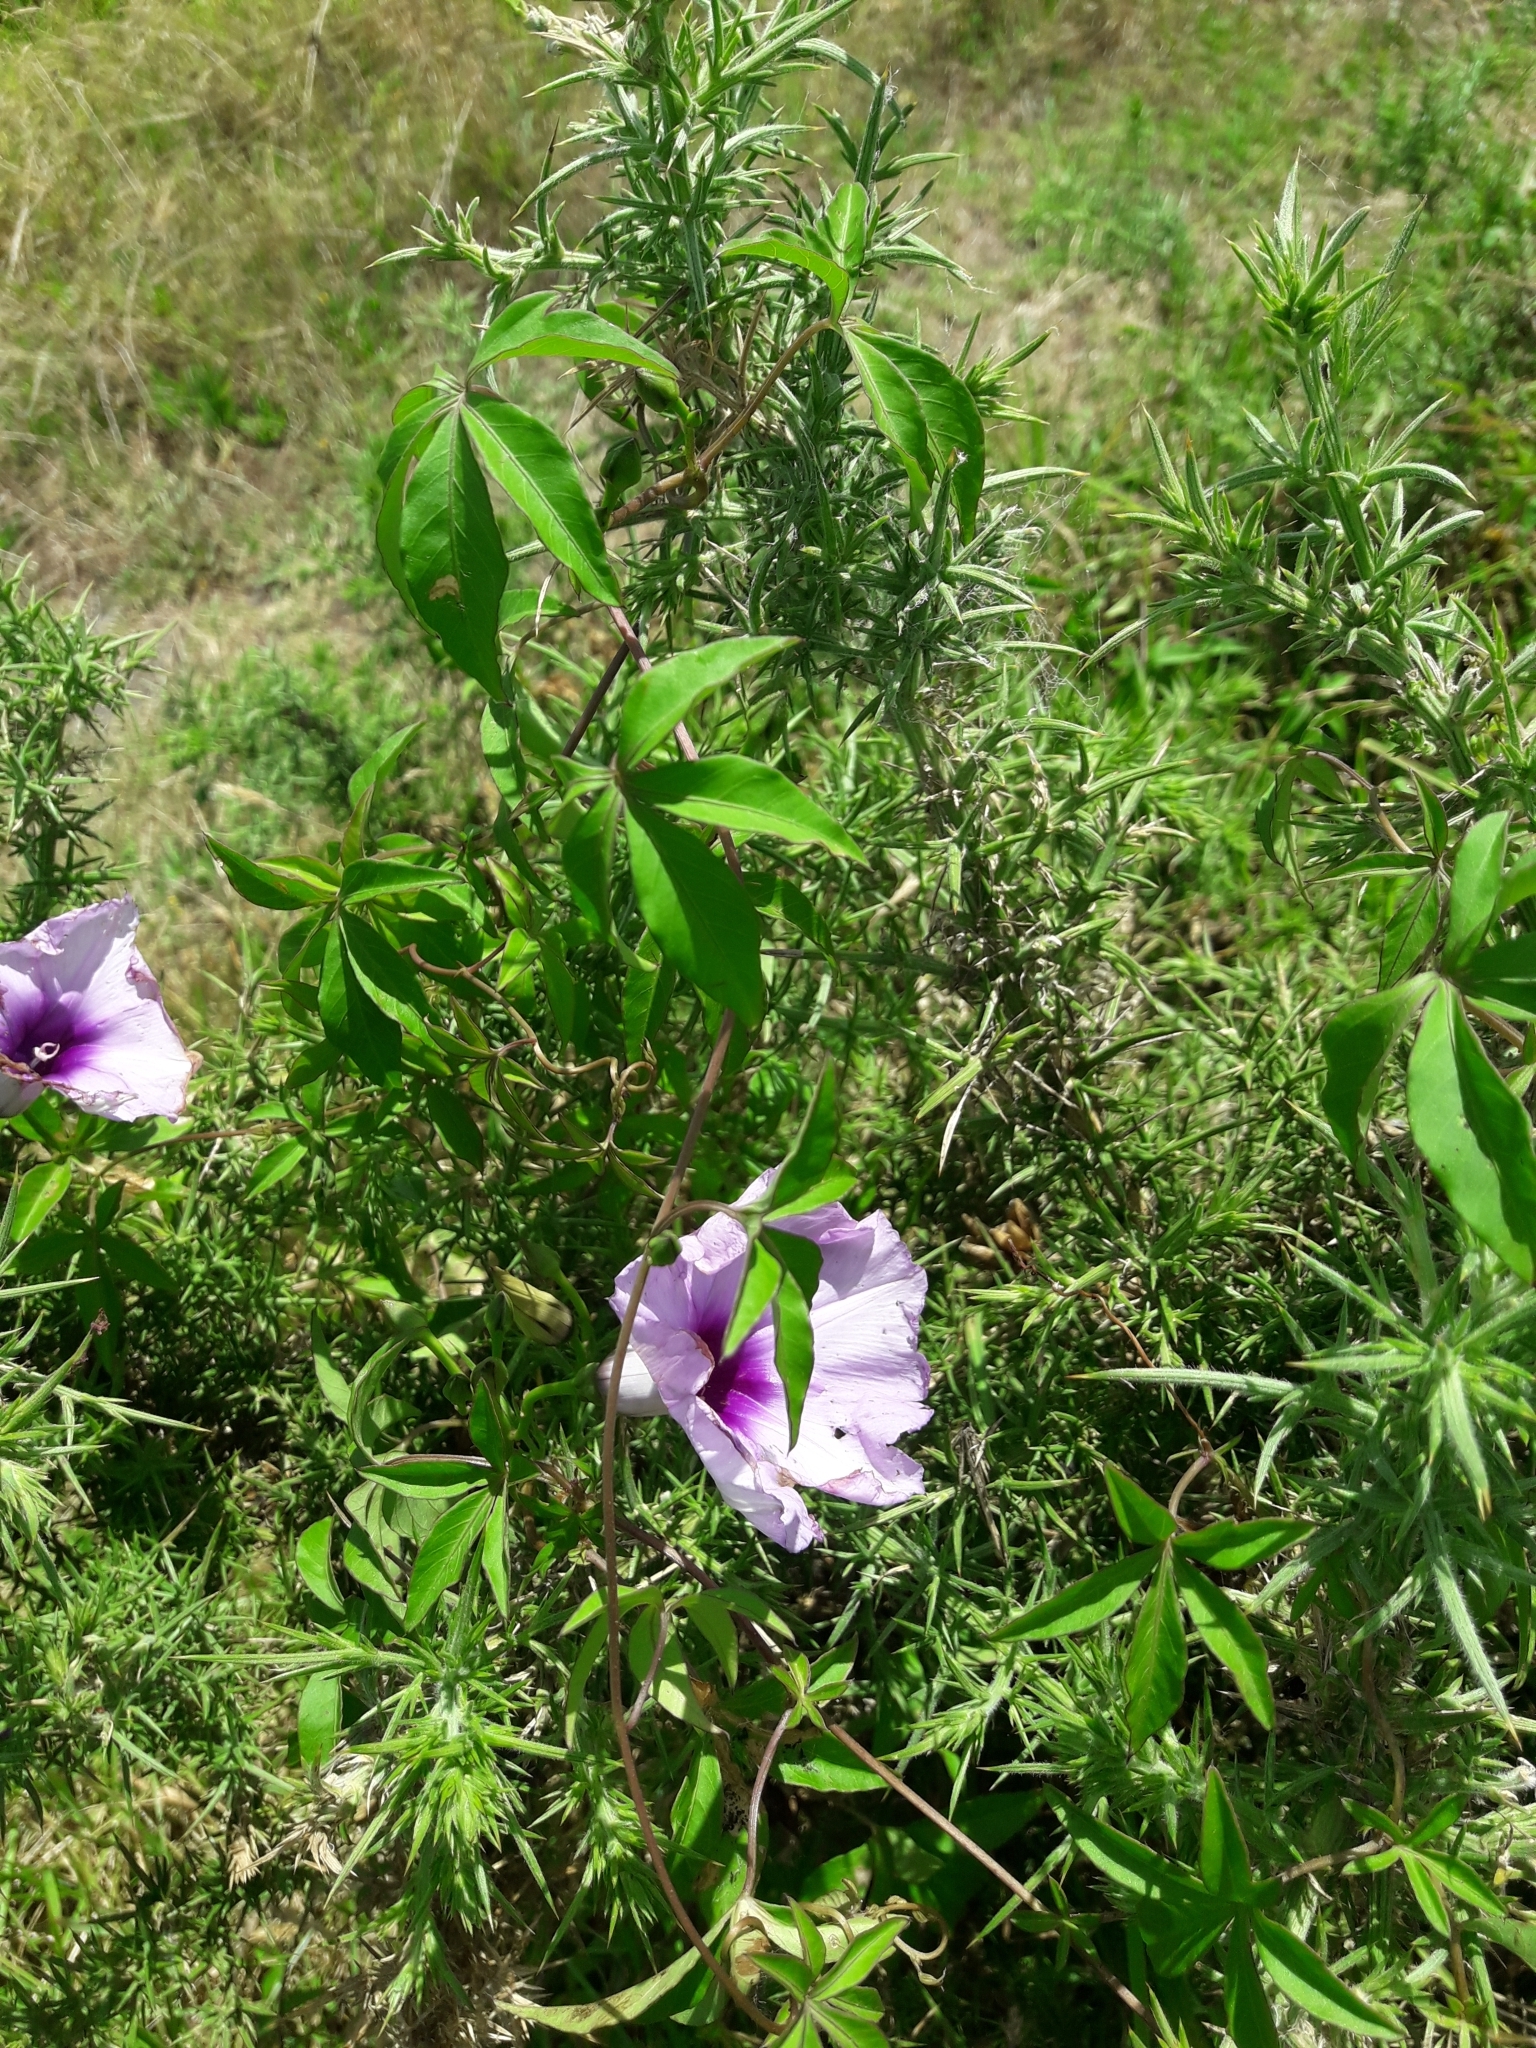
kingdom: Plantae
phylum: Tracheophyta
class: Magnoliopsida
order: Solanales
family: Convolvulaceae
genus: Ipomoea
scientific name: Ipomoea cairica
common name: Mile a minute vine
